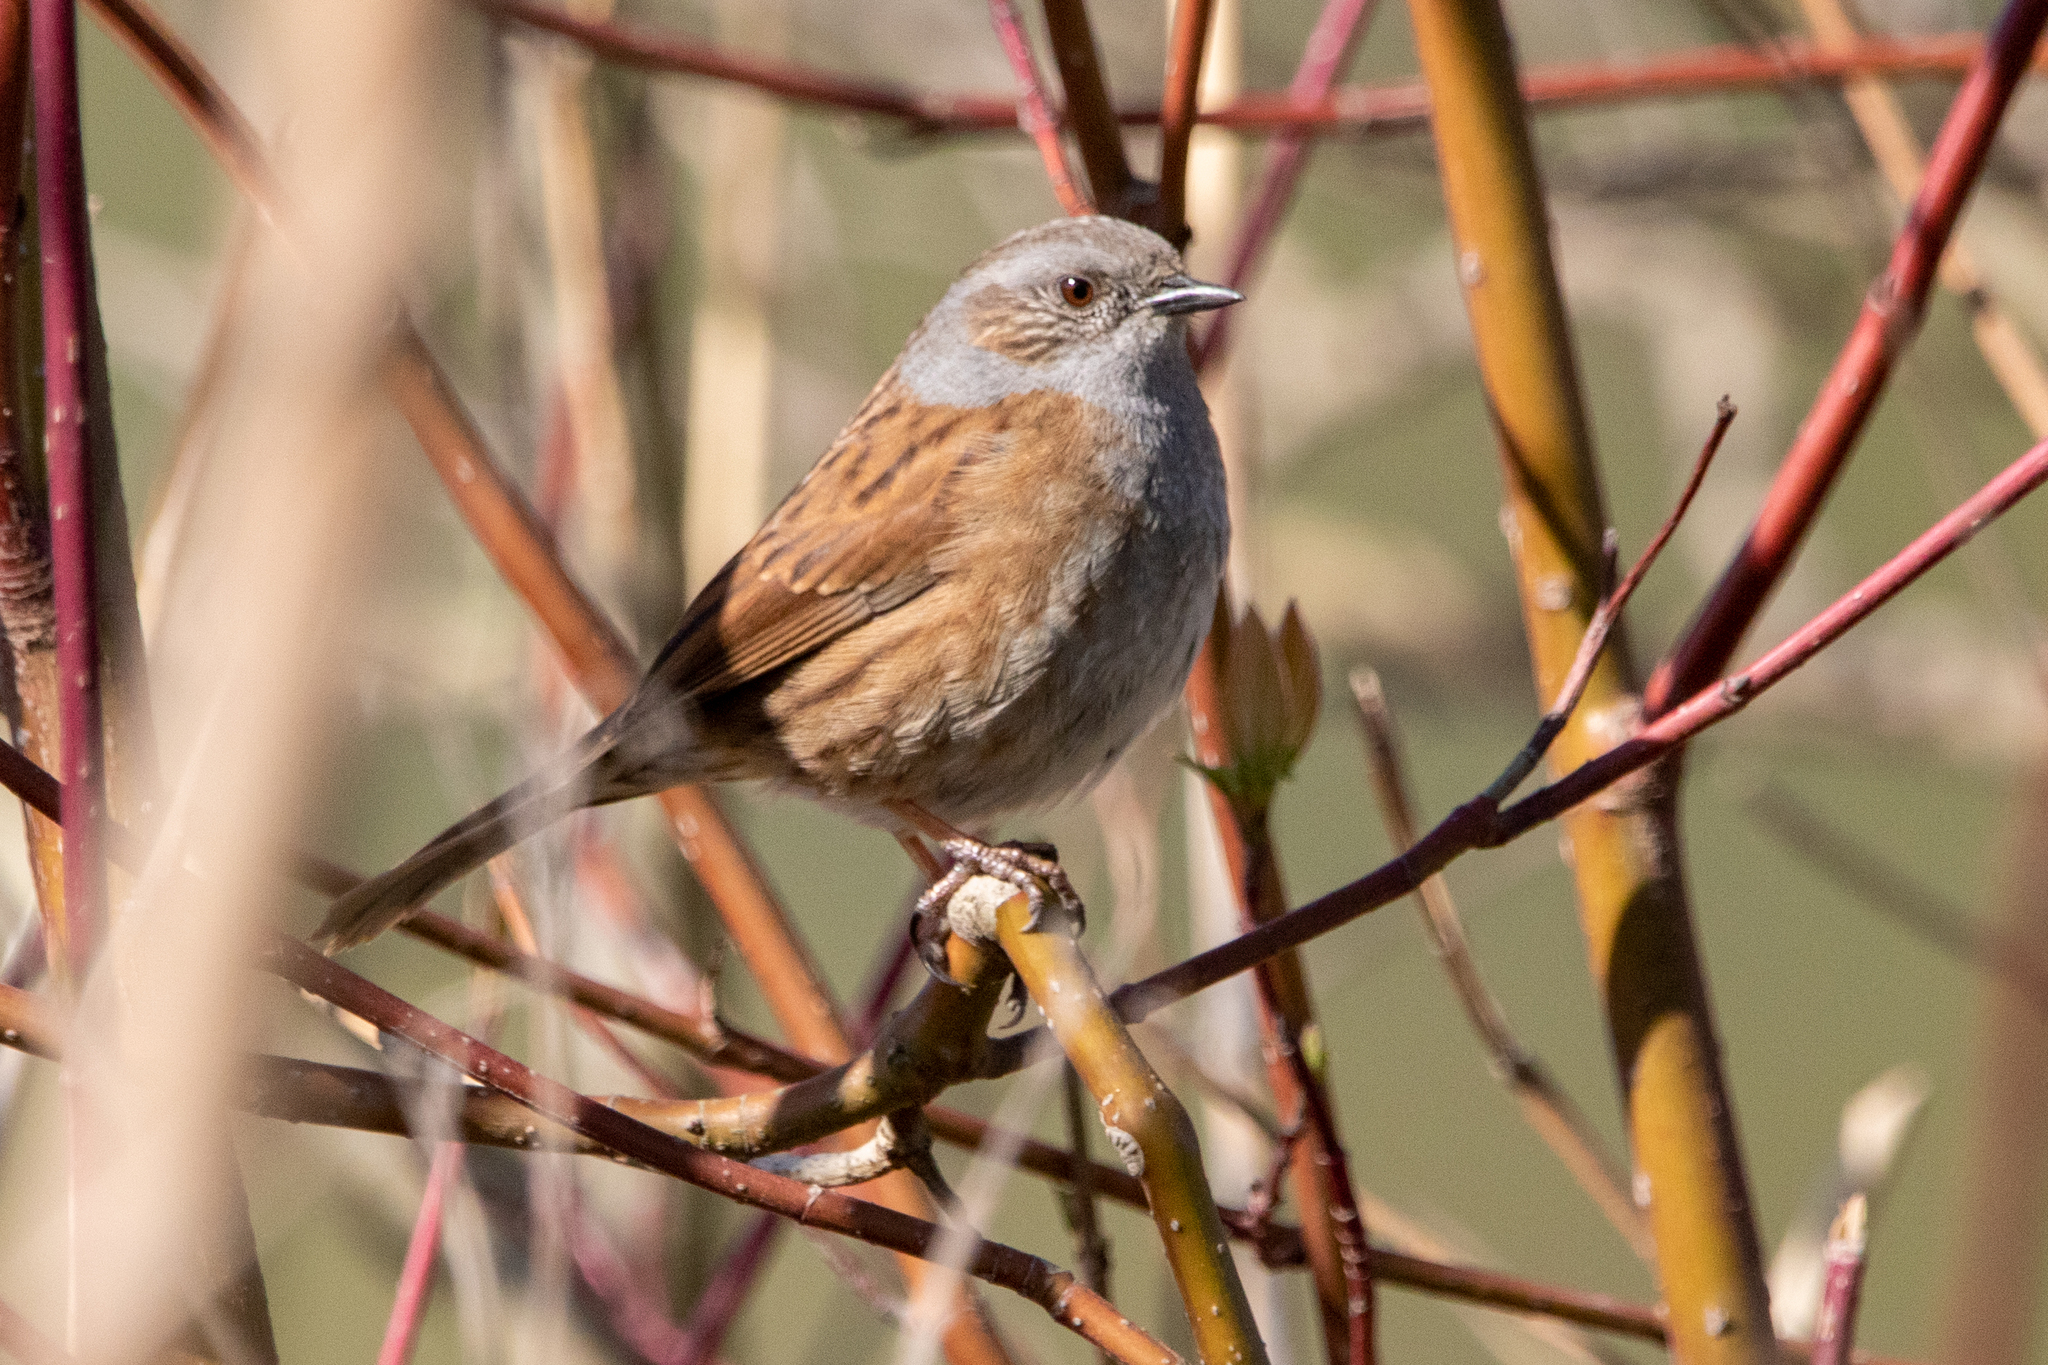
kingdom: Animalia
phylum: Chordata
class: Aves
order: Passeriformes
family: Prunellidae
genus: Prunella
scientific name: Prunella modularis
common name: Dunnock
